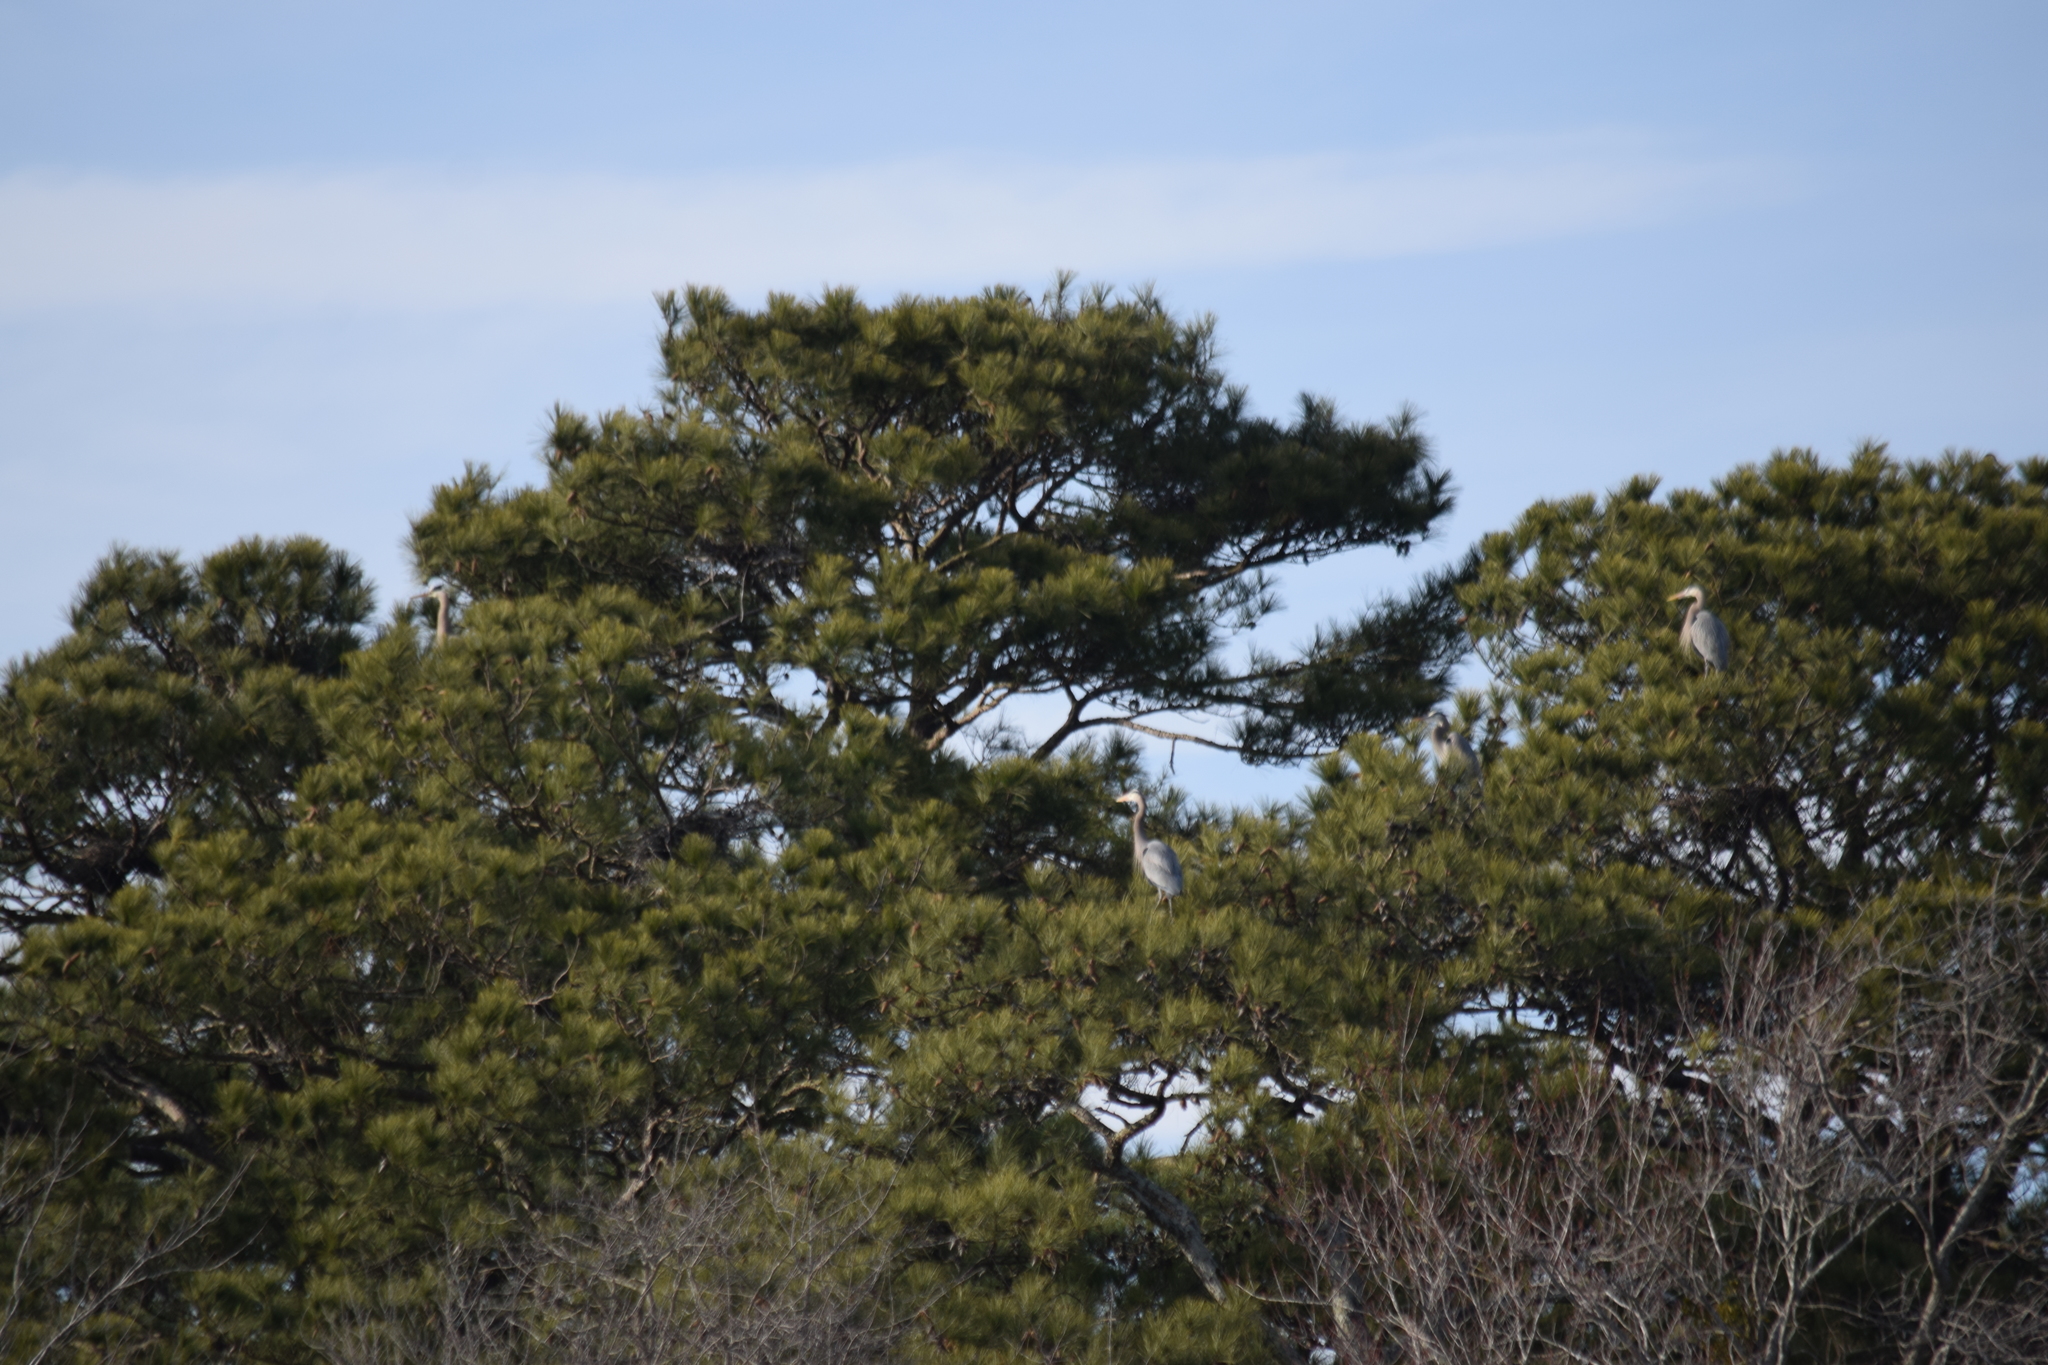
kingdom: Animalia
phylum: Chordata
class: Aves
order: Pelecaniformes
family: Ardeidae
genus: Ardea
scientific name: Ardea herodias
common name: Great blue heron
